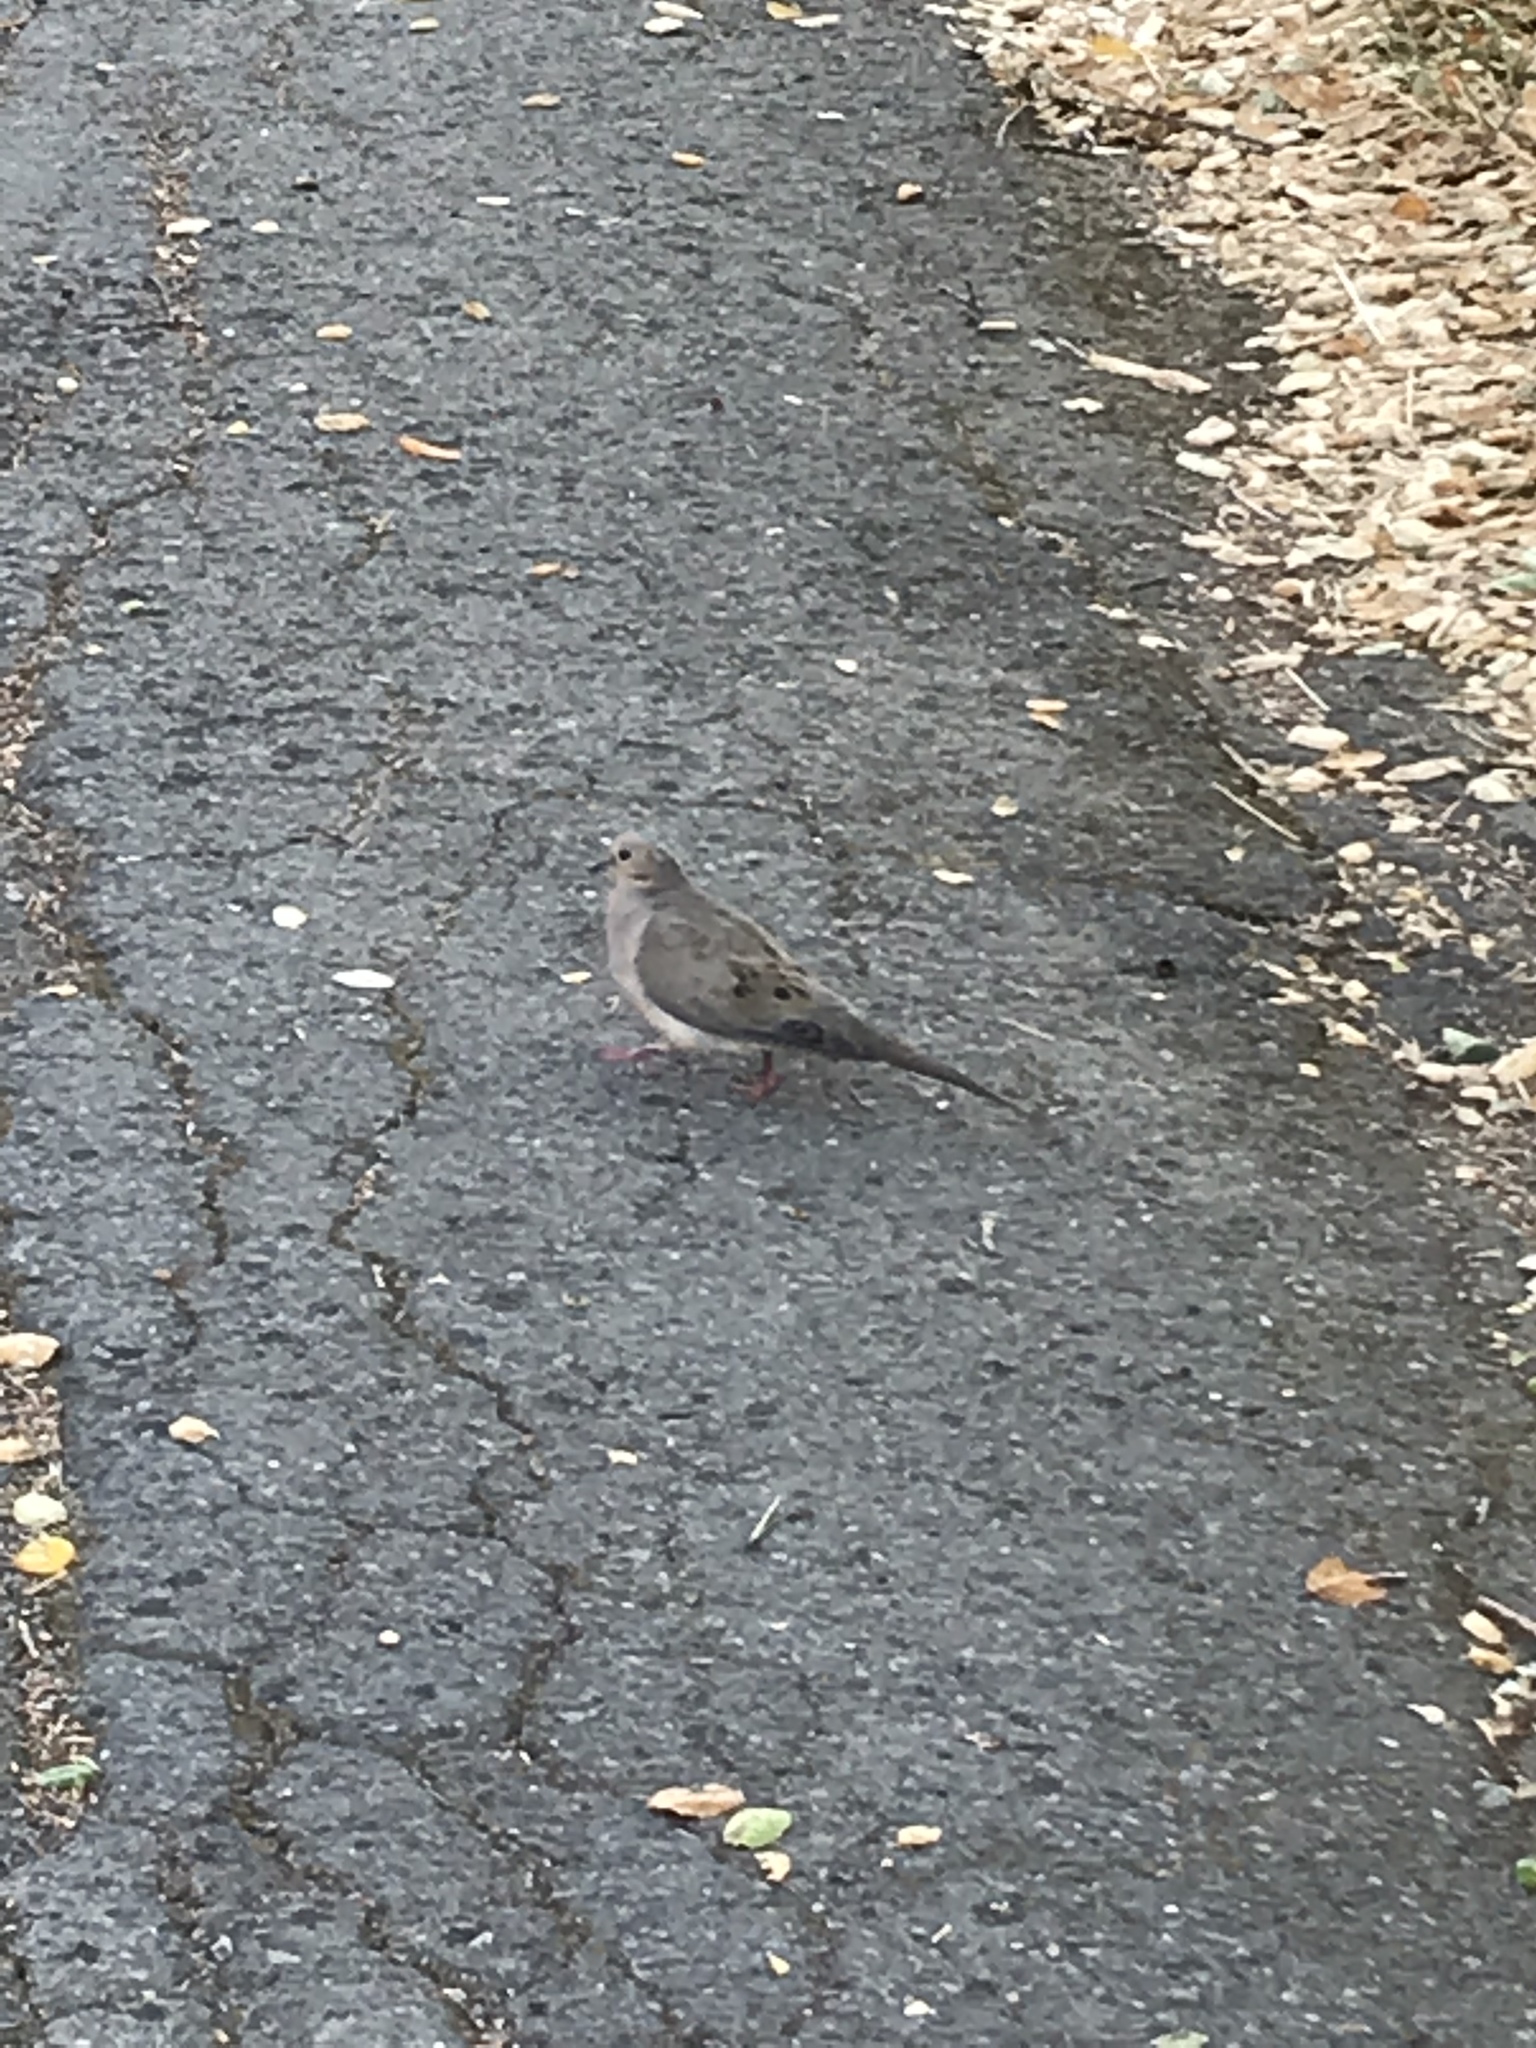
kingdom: Animalia
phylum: Chordata
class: Aves
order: Columbiformes
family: Columbidae
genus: Zenaida
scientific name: Zenaida macroura
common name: Mourning dove
